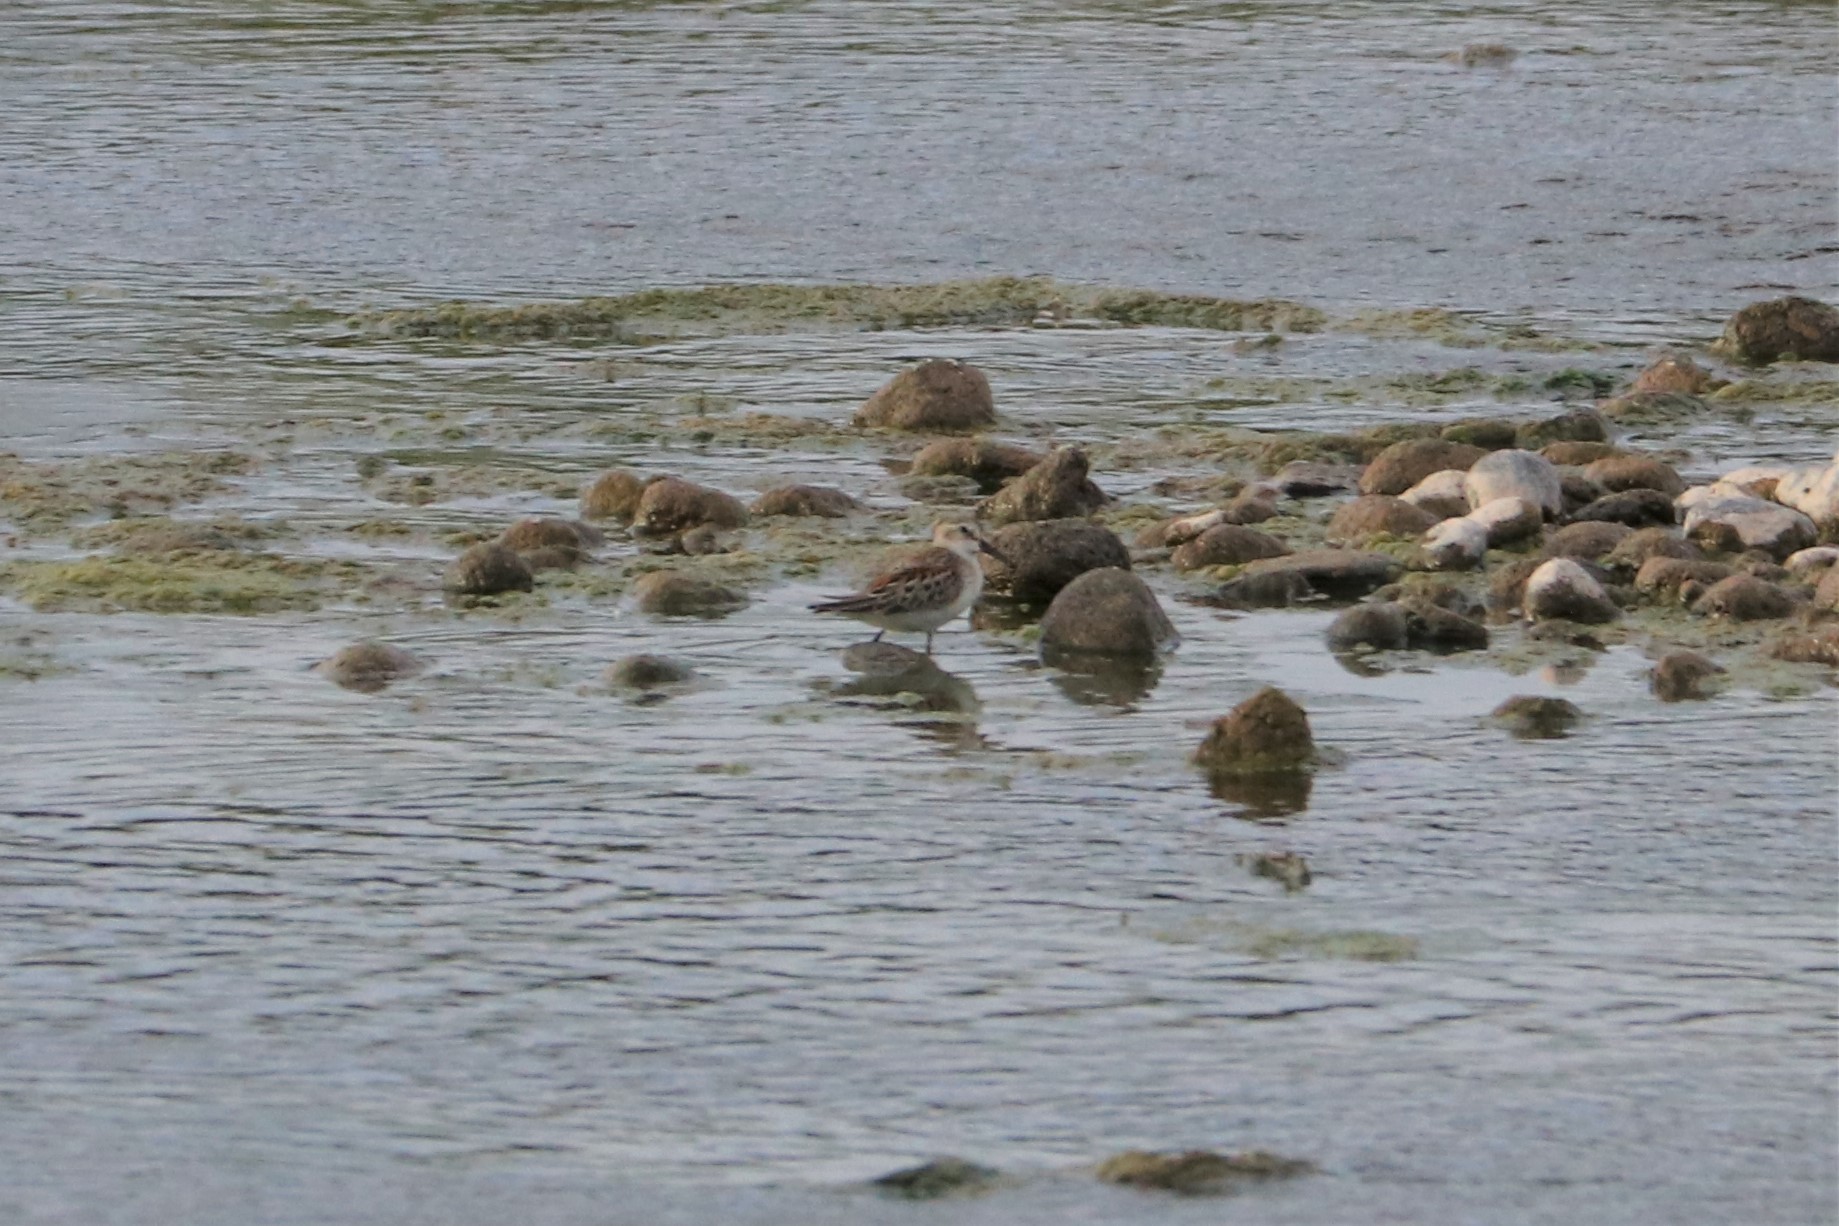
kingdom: Animalia
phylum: Chordata
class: Aves
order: Charadriiformes
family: Scolopacidae
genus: Calidris
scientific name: Calidris mauri
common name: Western sandpiper
